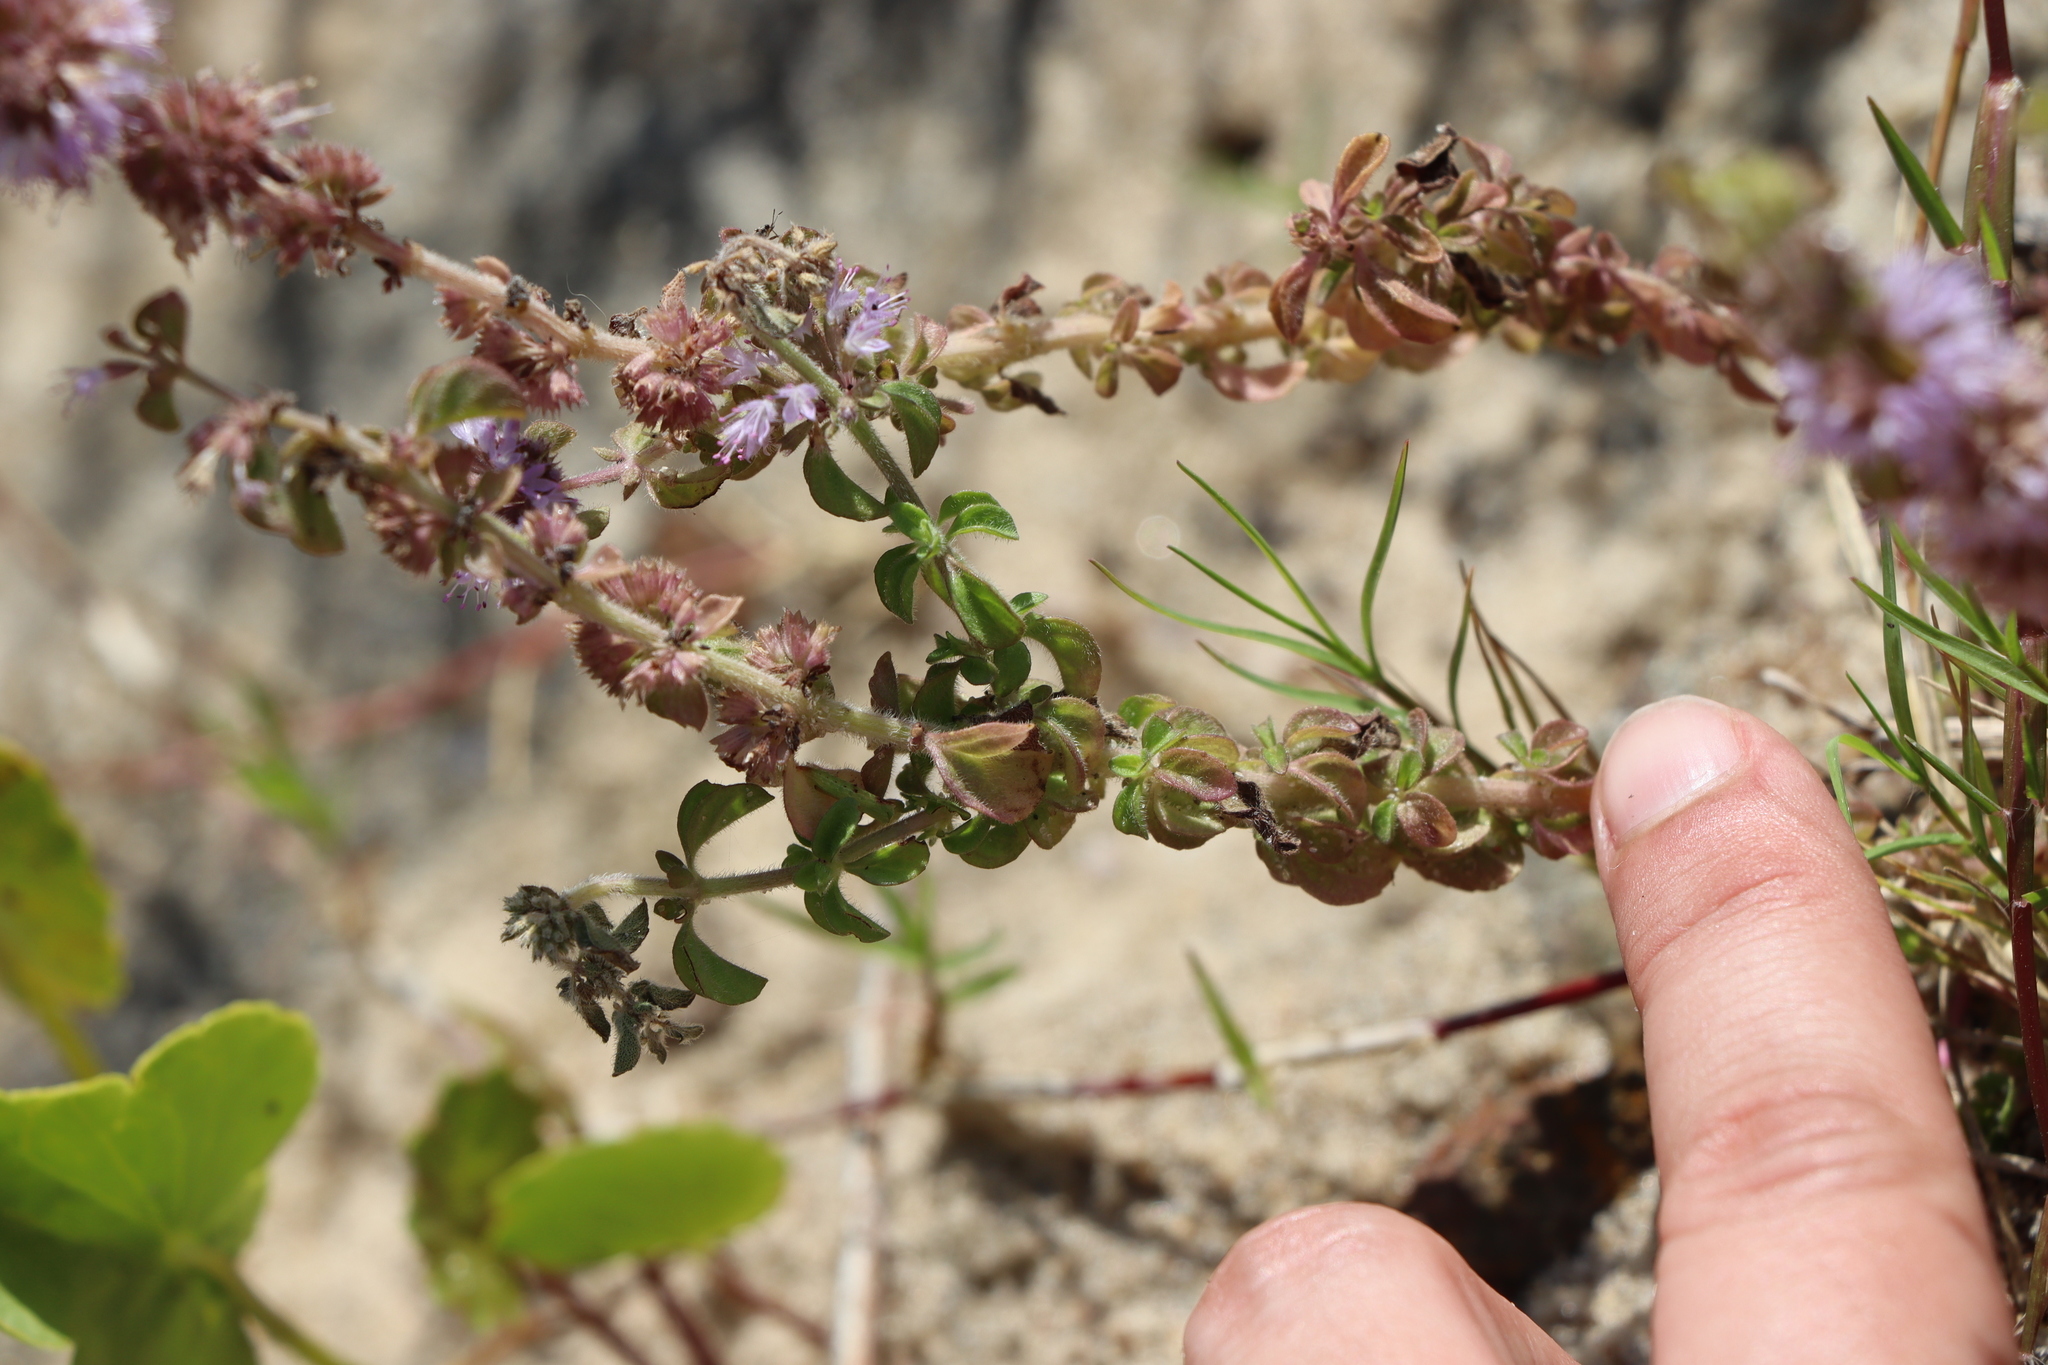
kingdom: Plantae
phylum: Tracheophyta
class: Magnoliopsida
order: Lamiales
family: Lamiaceae
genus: Mentha
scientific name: Mentha pulegium
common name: Pennyroyal
